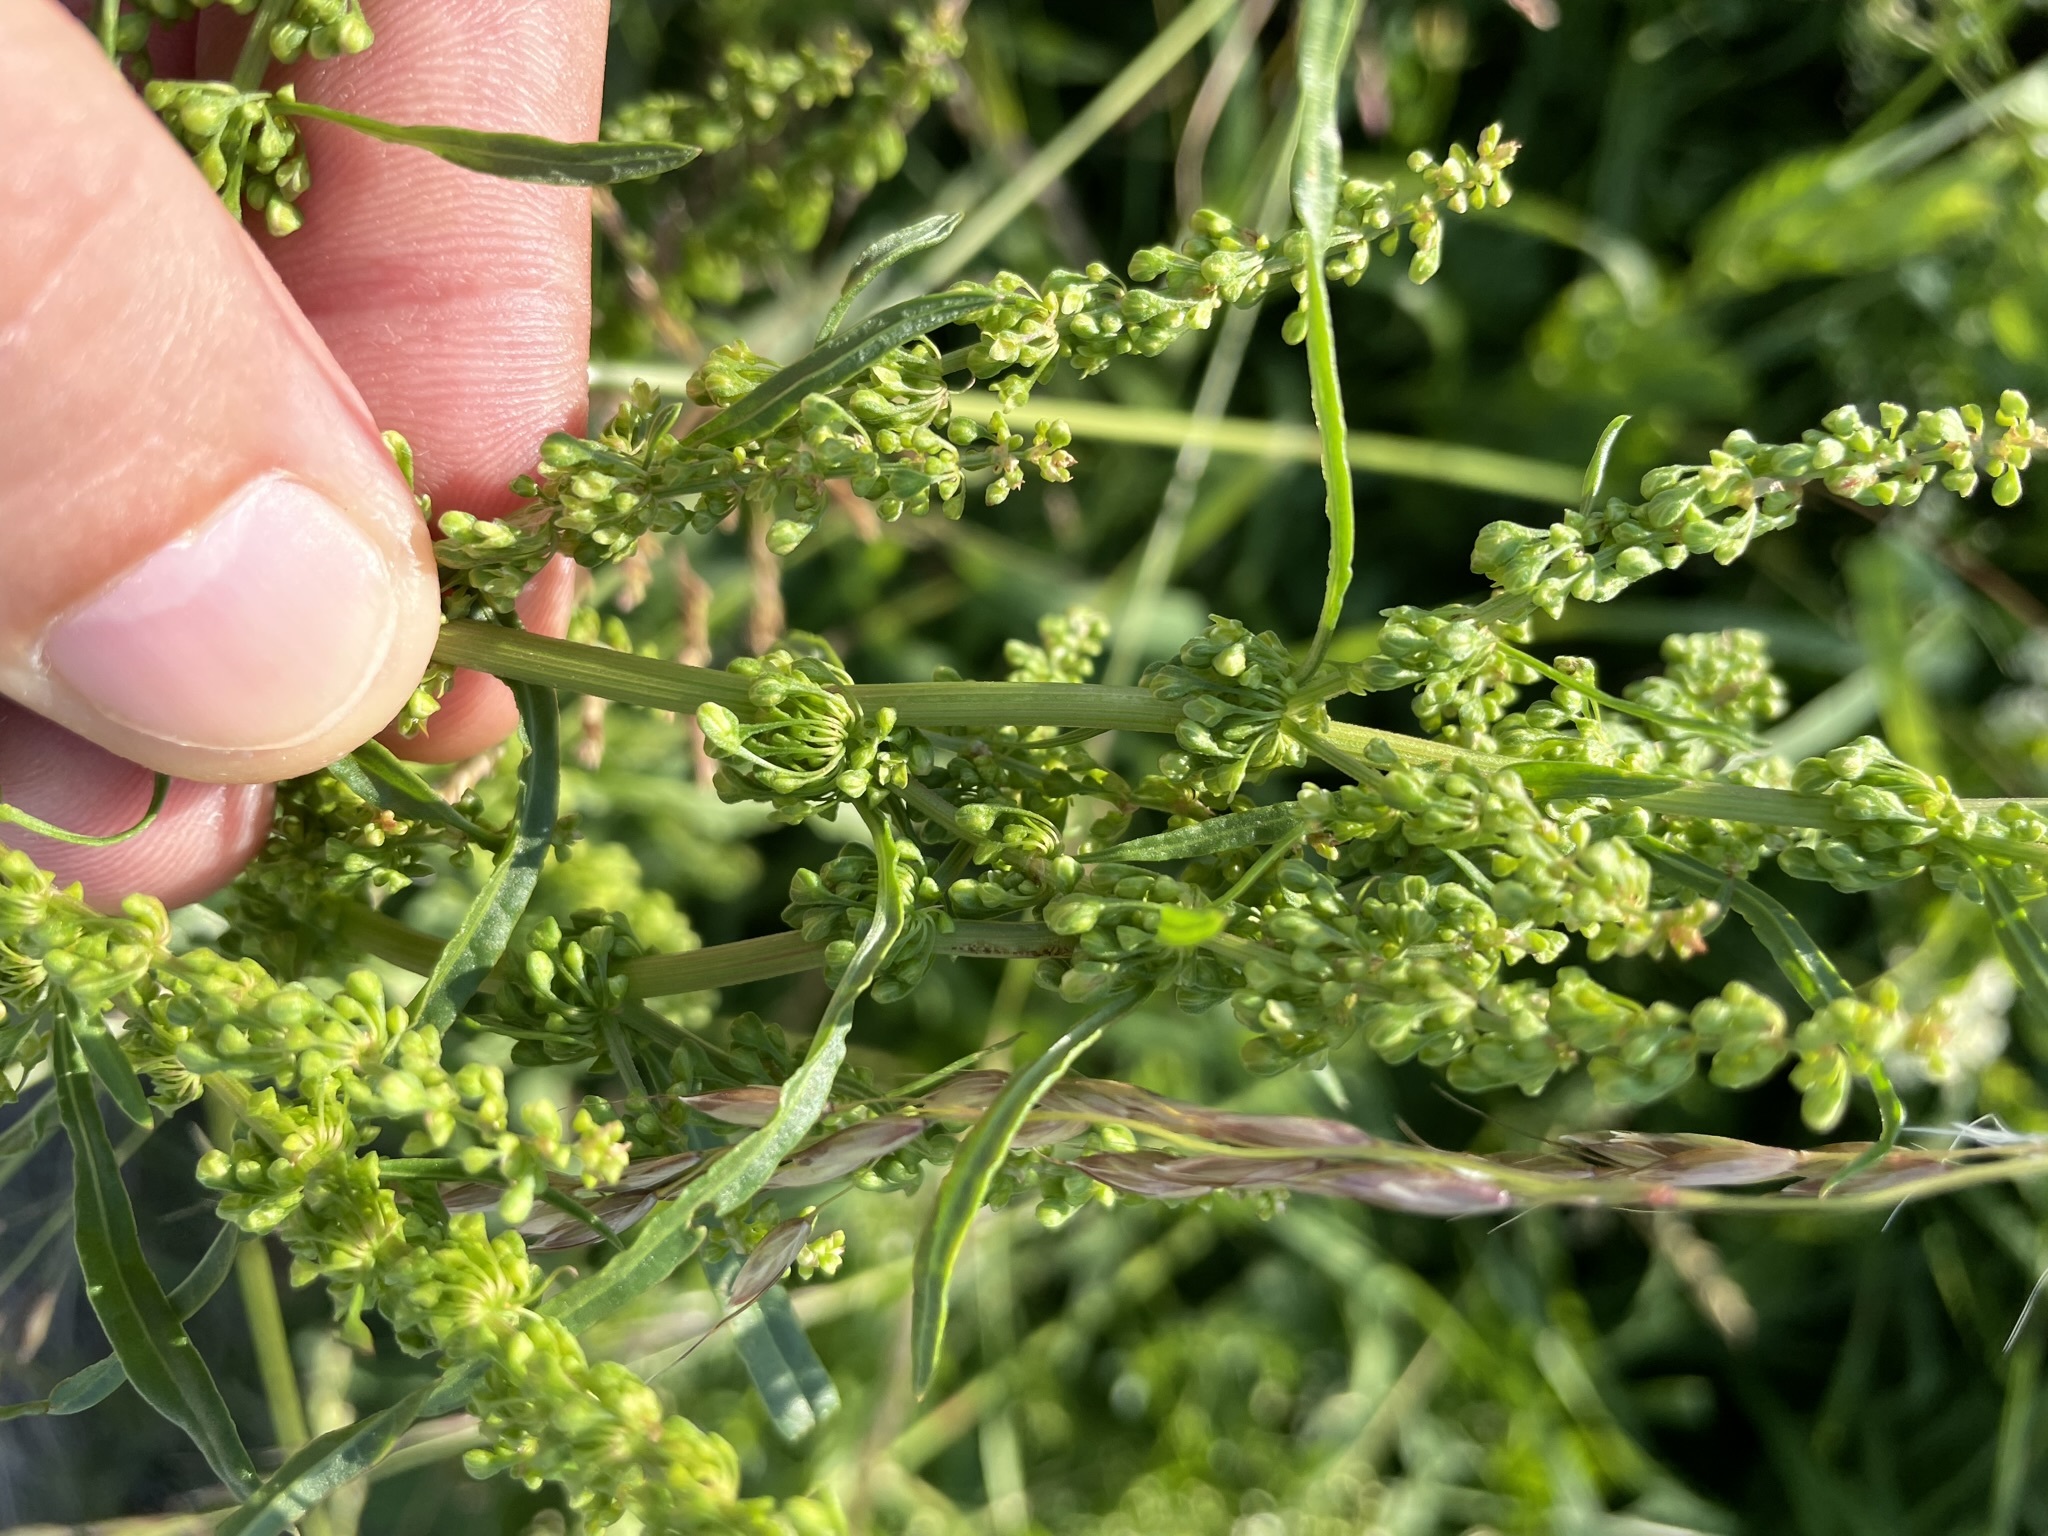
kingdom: Plantae
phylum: Tracheophyta
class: Magnoliopsida
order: Caryophyllales
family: Polygonaceae
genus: Rumex
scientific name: Rumex crispus
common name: Curled dock
